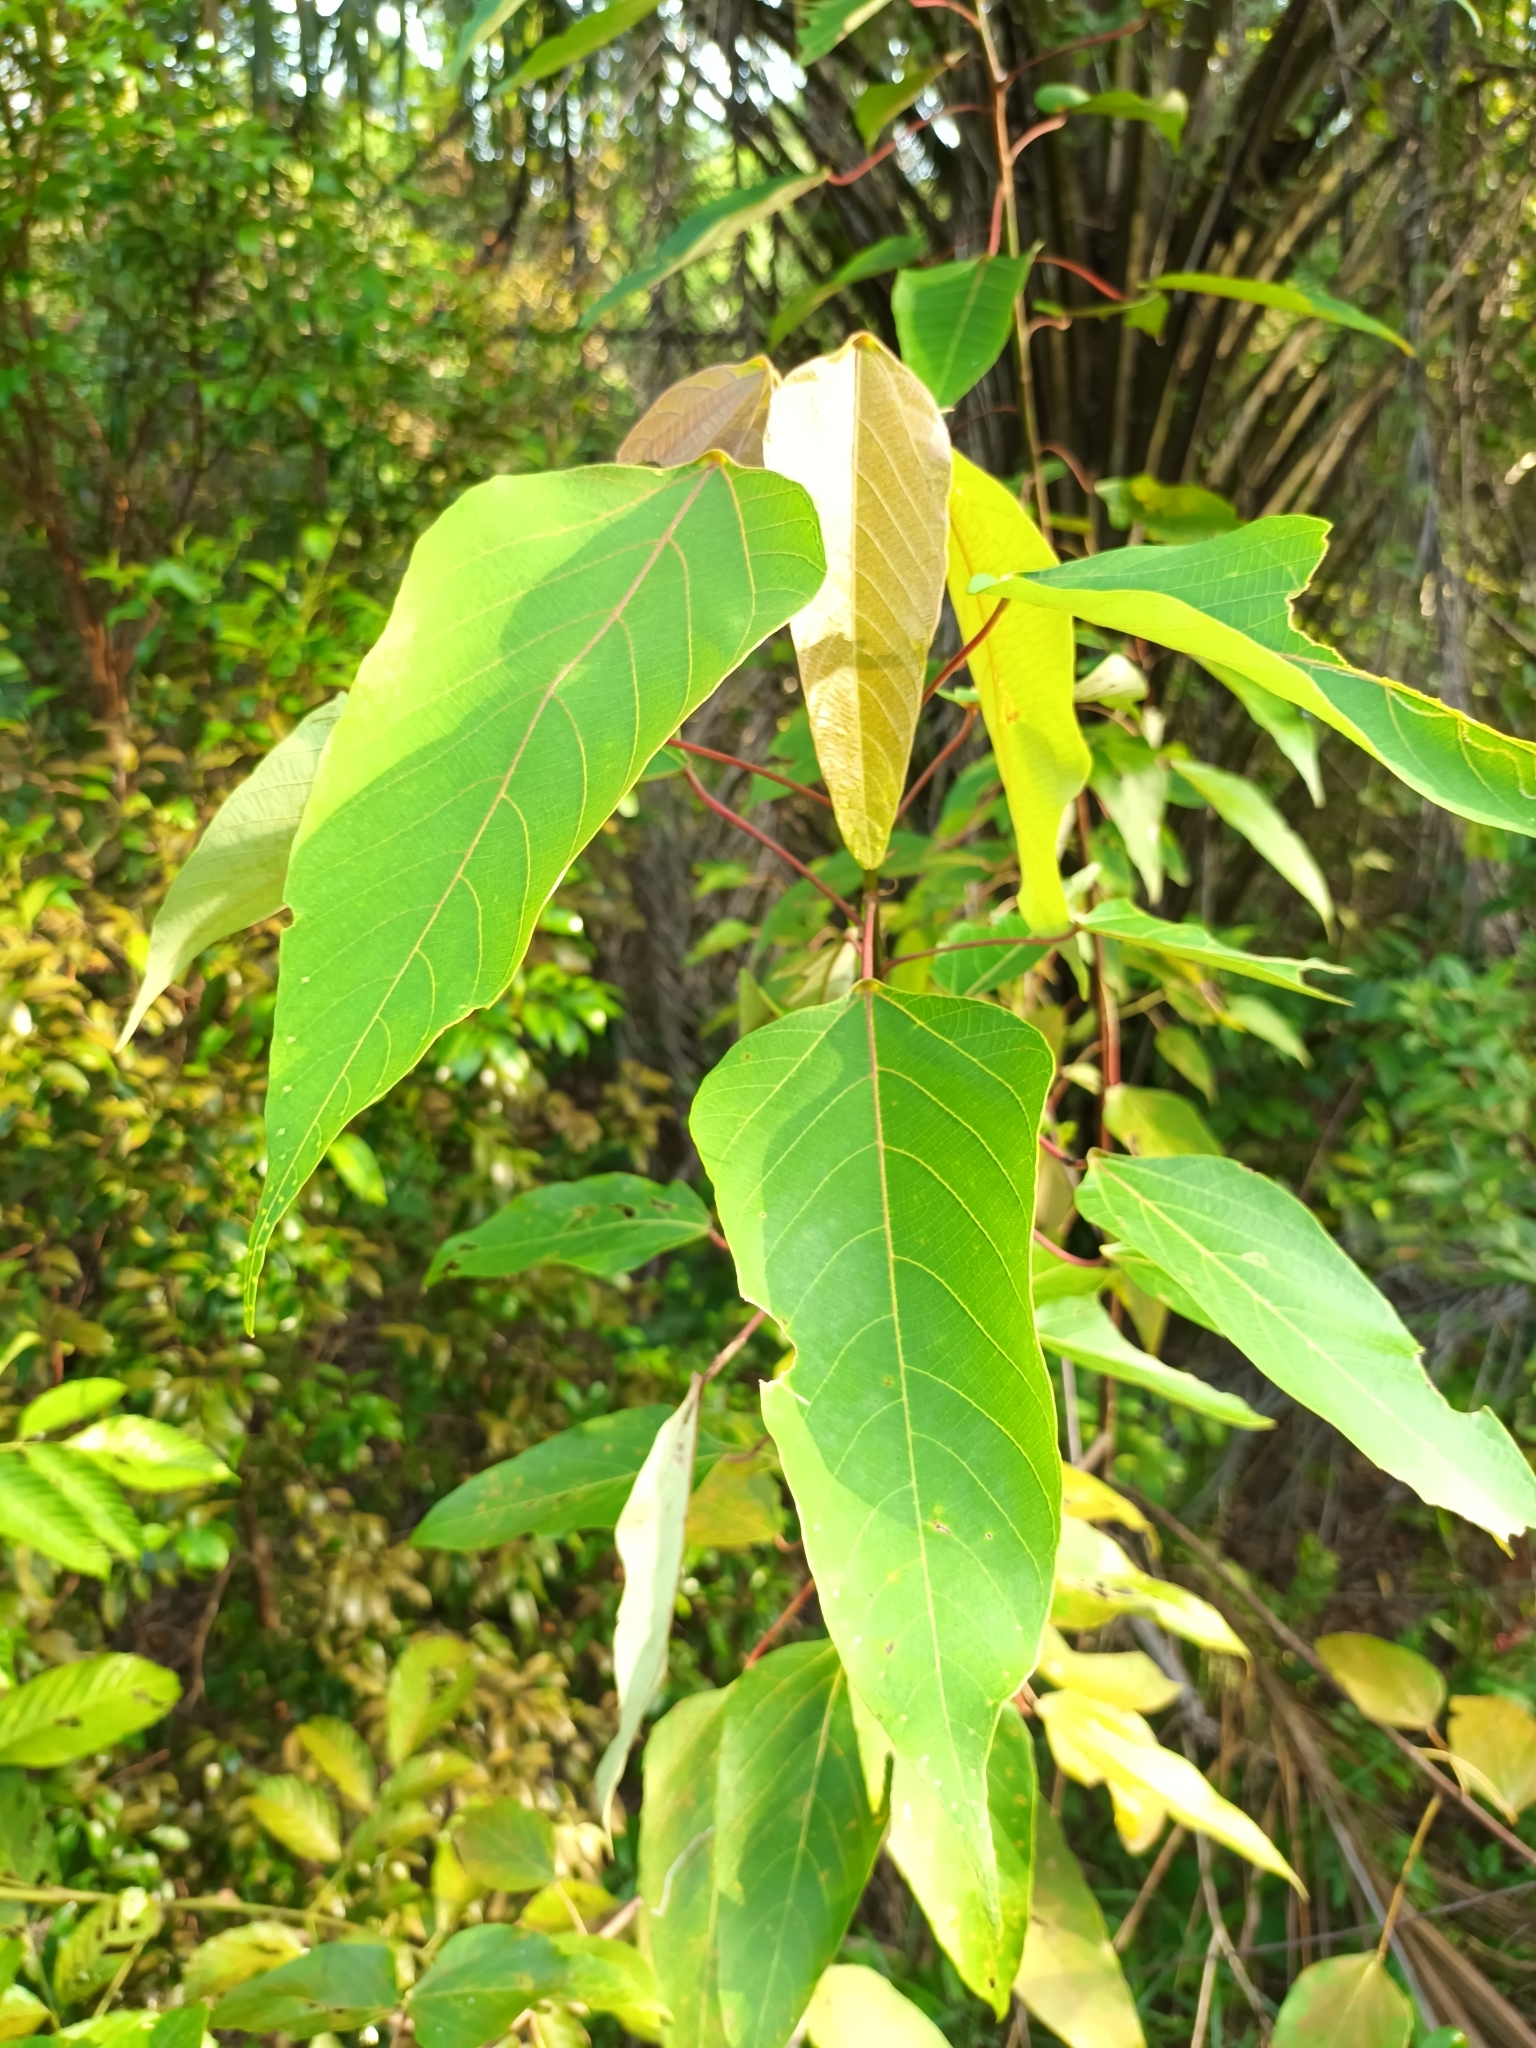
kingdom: Plantae
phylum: Tracheophyta
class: Magnoliopsida
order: Malpighiales
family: Euphorbiaceae
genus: Macaranga
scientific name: Macaranga heynei
